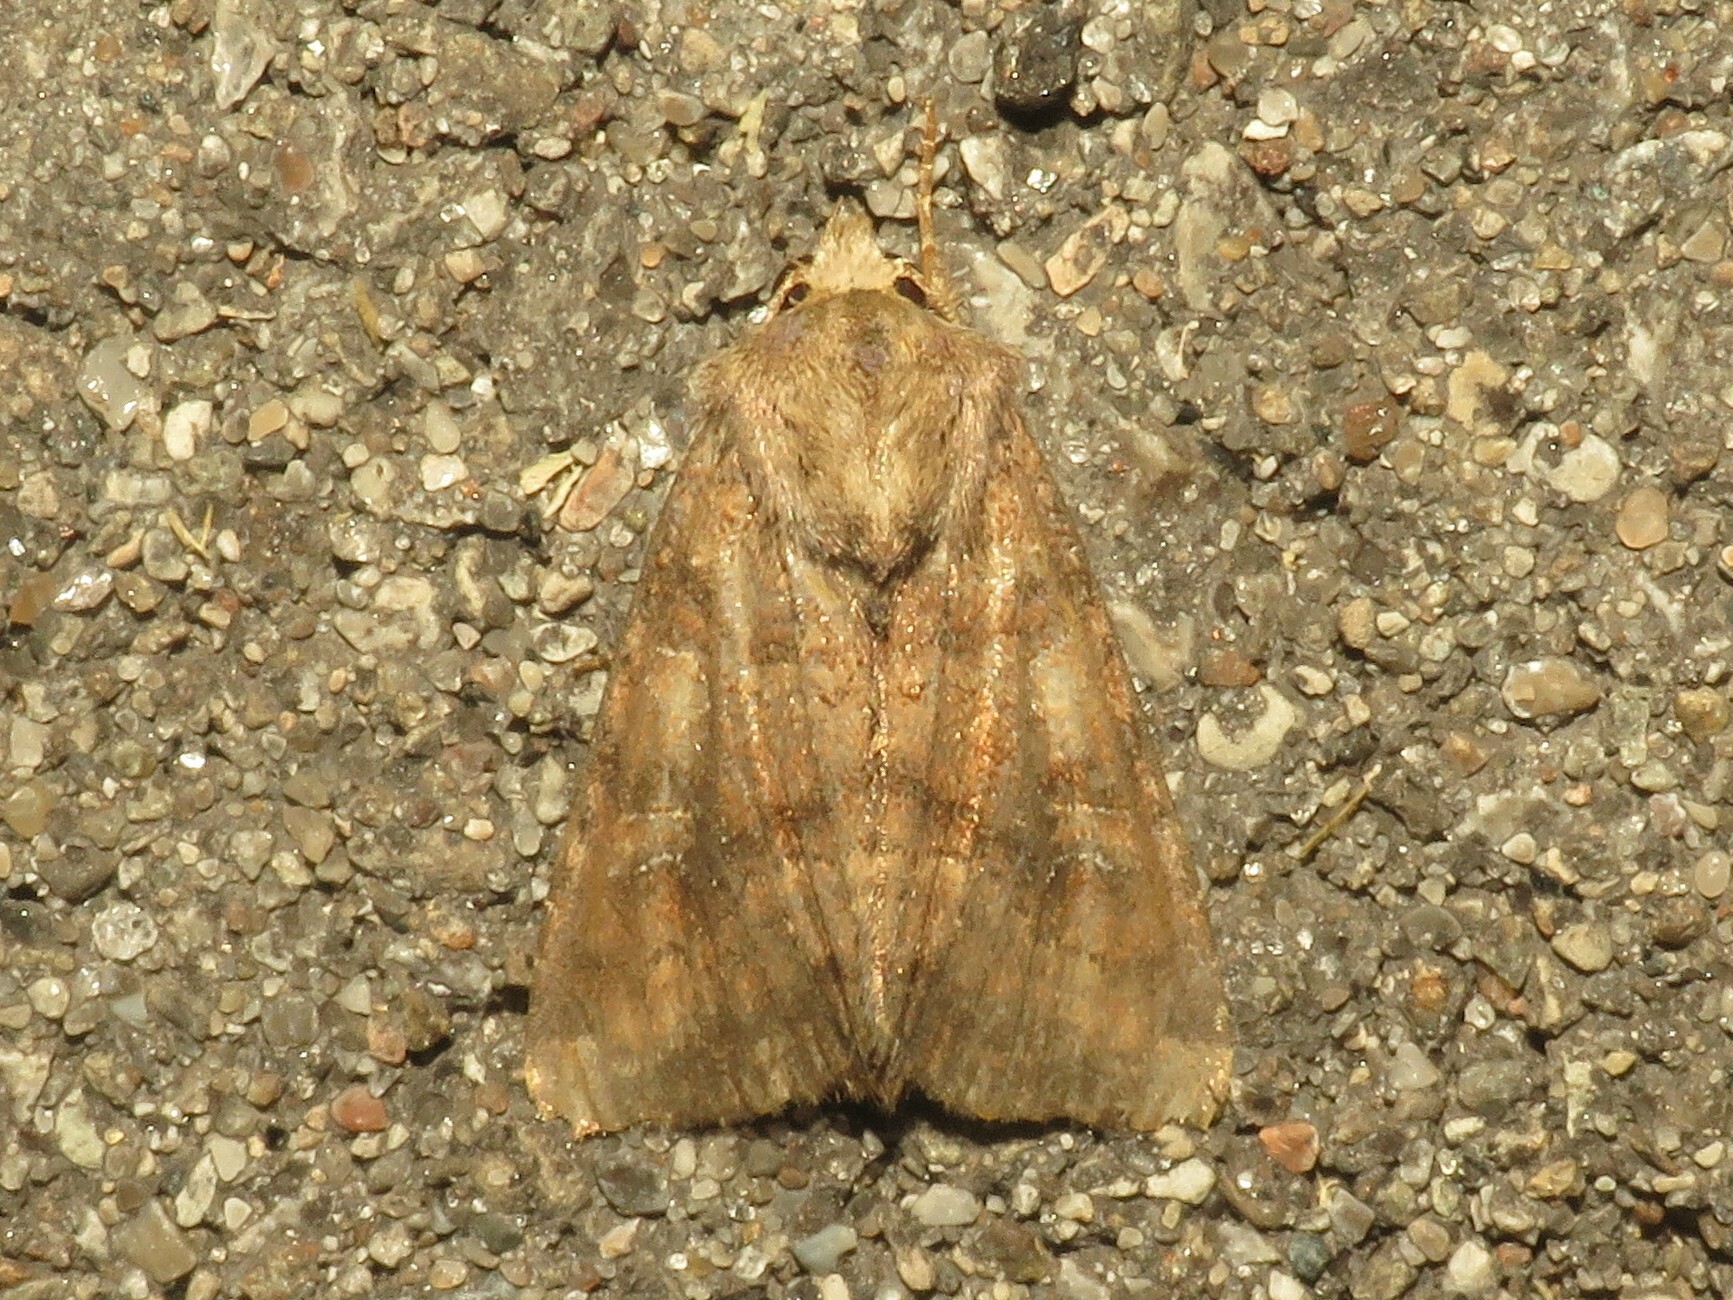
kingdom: Animalia
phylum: Arthropoda
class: Insecta
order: Lepidoptera
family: Noctuidae
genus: Loscopia
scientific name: Loscopia velata
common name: Veiled ear moth
